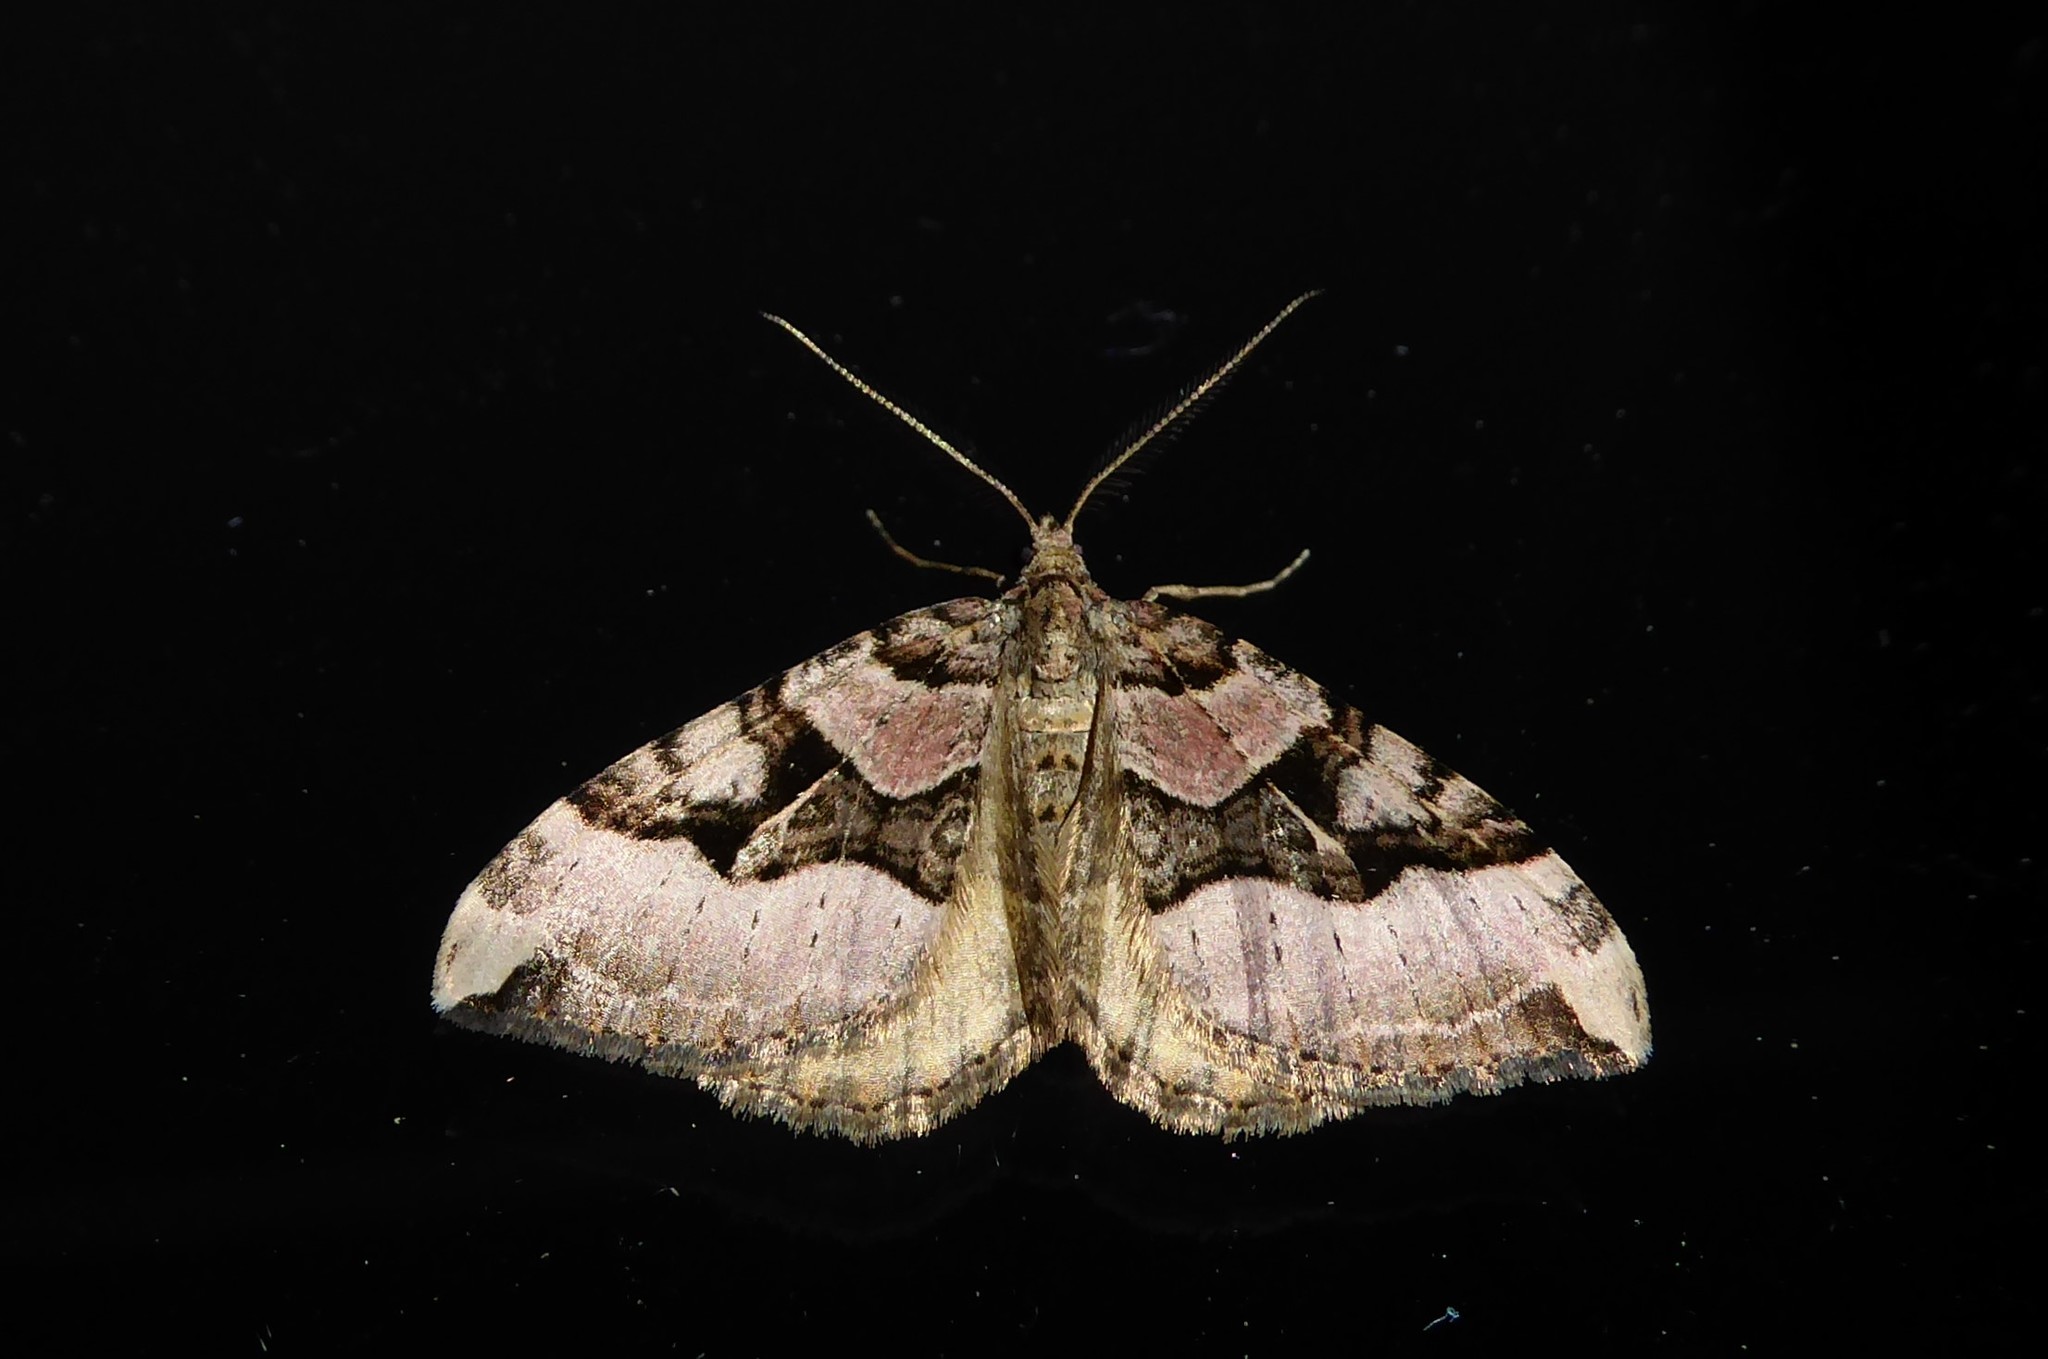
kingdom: Animalia
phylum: Arthropoda
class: Insecta
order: Lepidoptera
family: Geometridae
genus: Xanthorhoe
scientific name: Xanthorhoe semifissata
